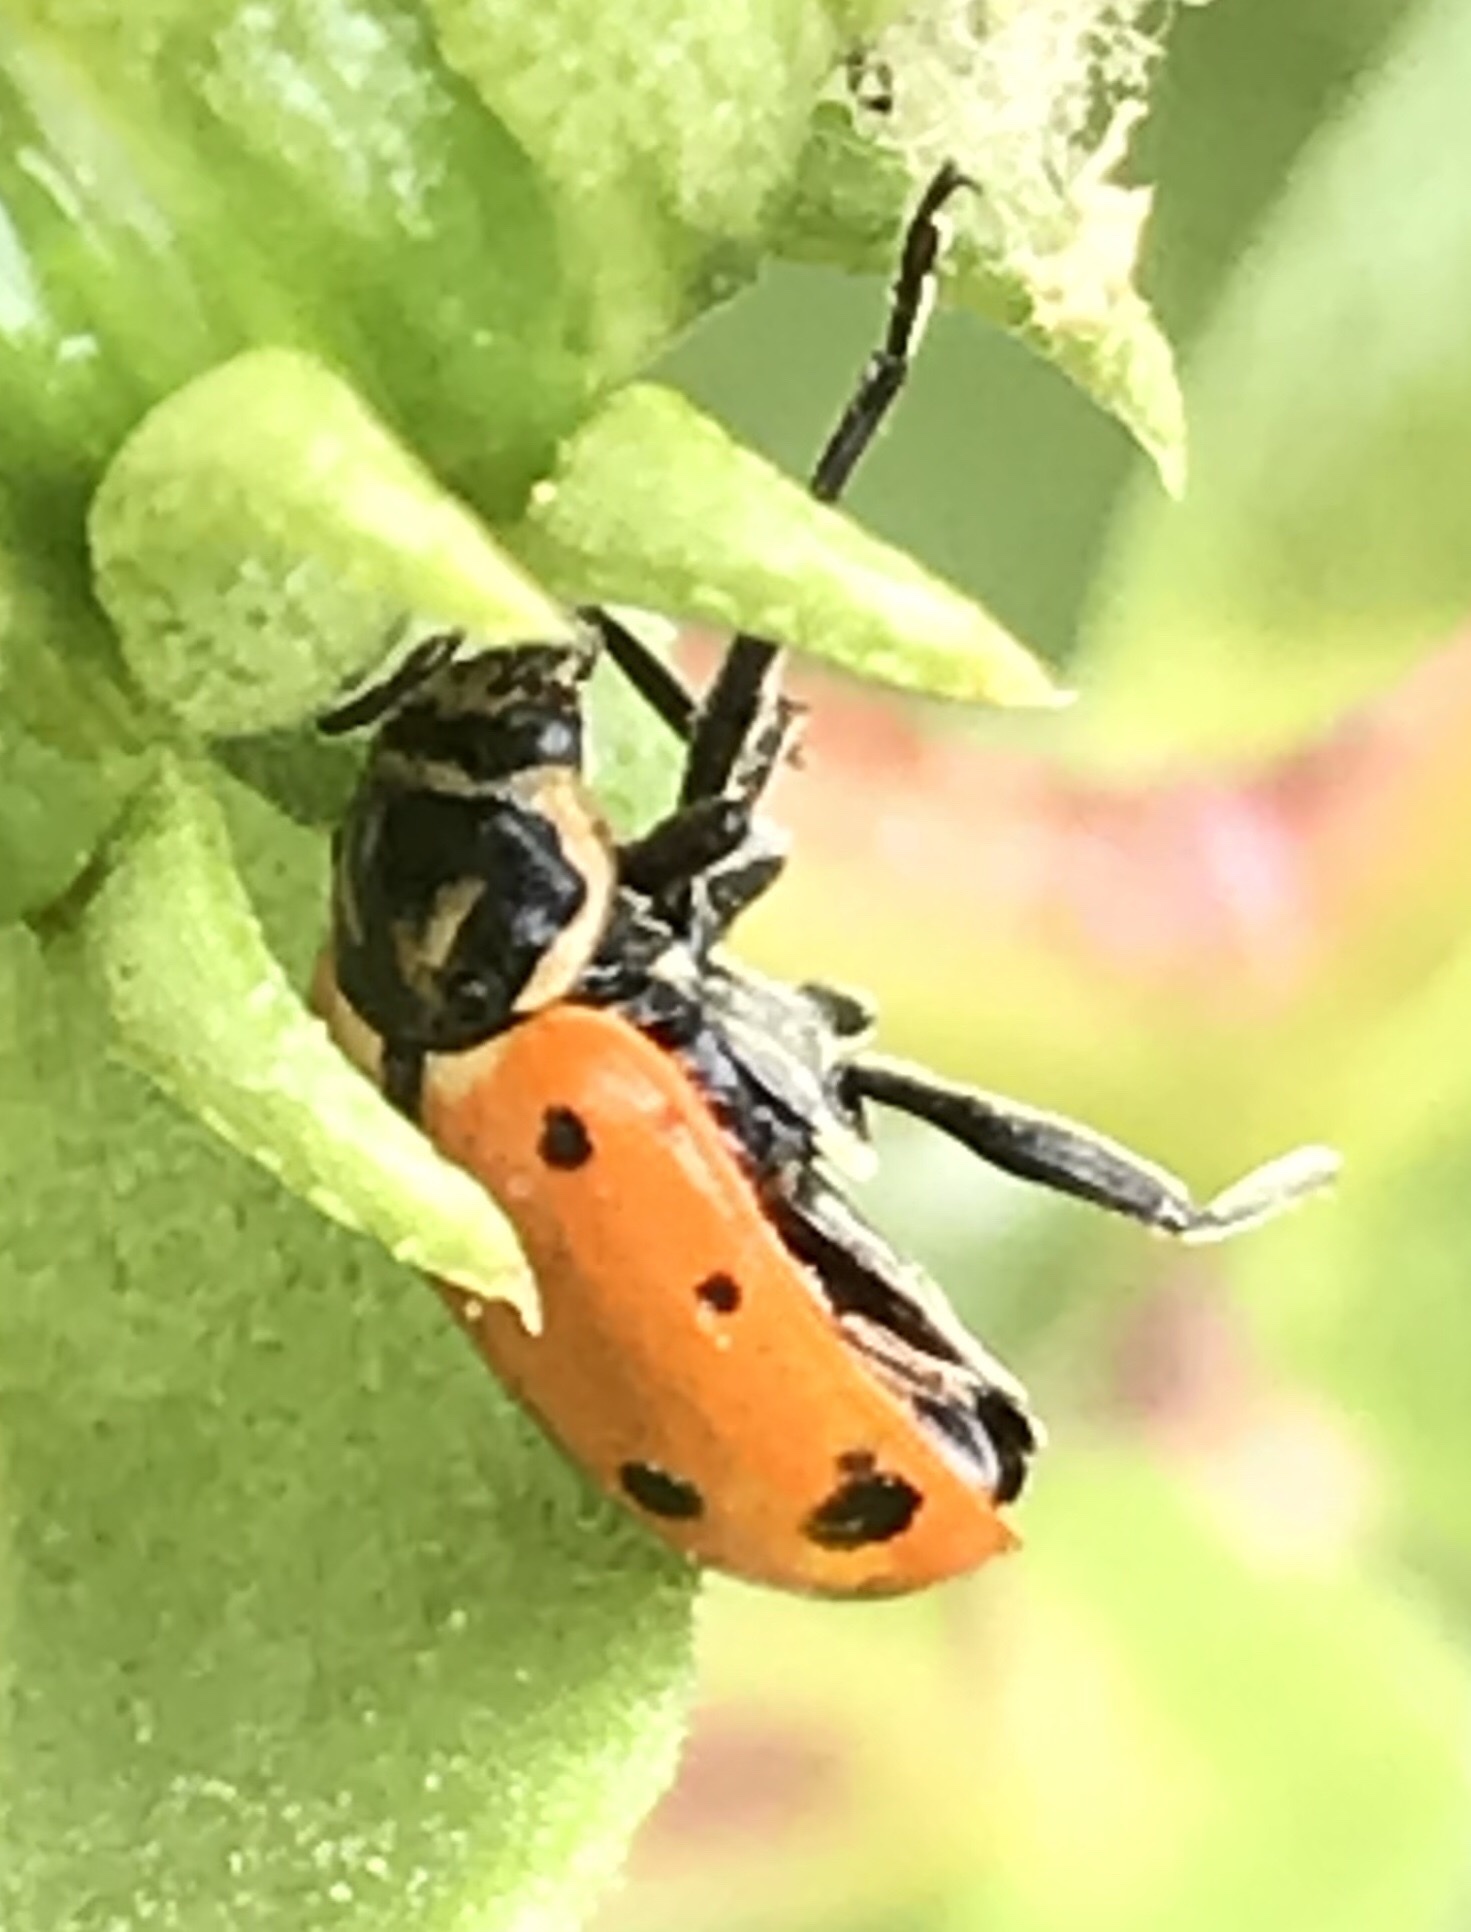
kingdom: Animalia
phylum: Arthropoda
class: Insecta
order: Coleoptera
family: Coccinellidae
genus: Hippodamia
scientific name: Hippodamia convergens
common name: Convergent lady beetle
